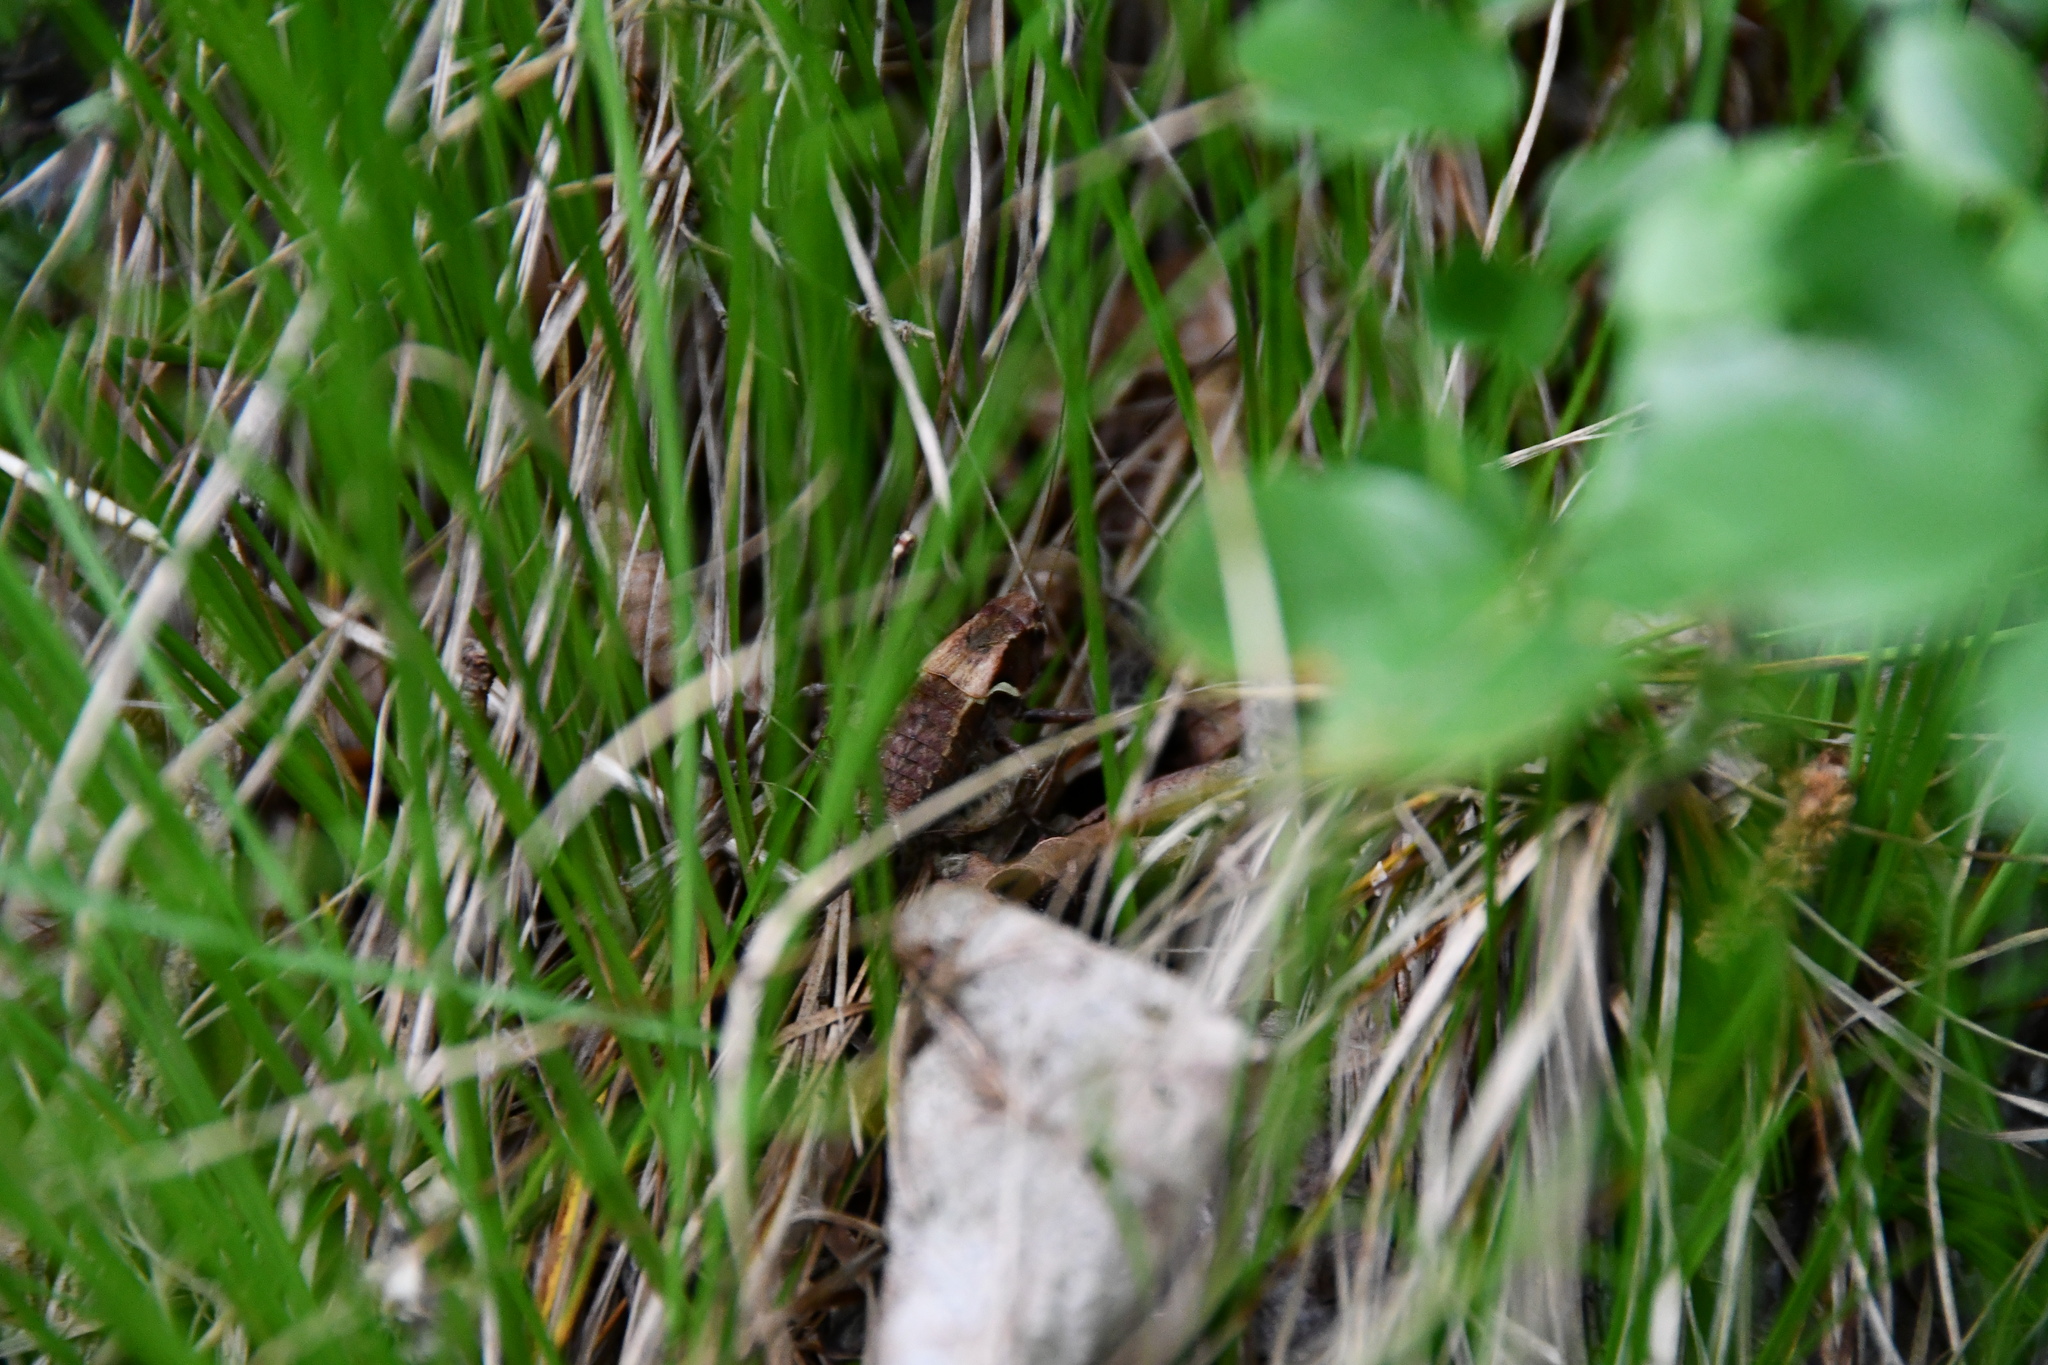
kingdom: Animalia
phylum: Arthropoda
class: Insecta
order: Orthoptera
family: Tettigoniidae
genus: Pholidoptera
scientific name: Pholidoptera aptera
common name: Alpine dark bush-cricket
